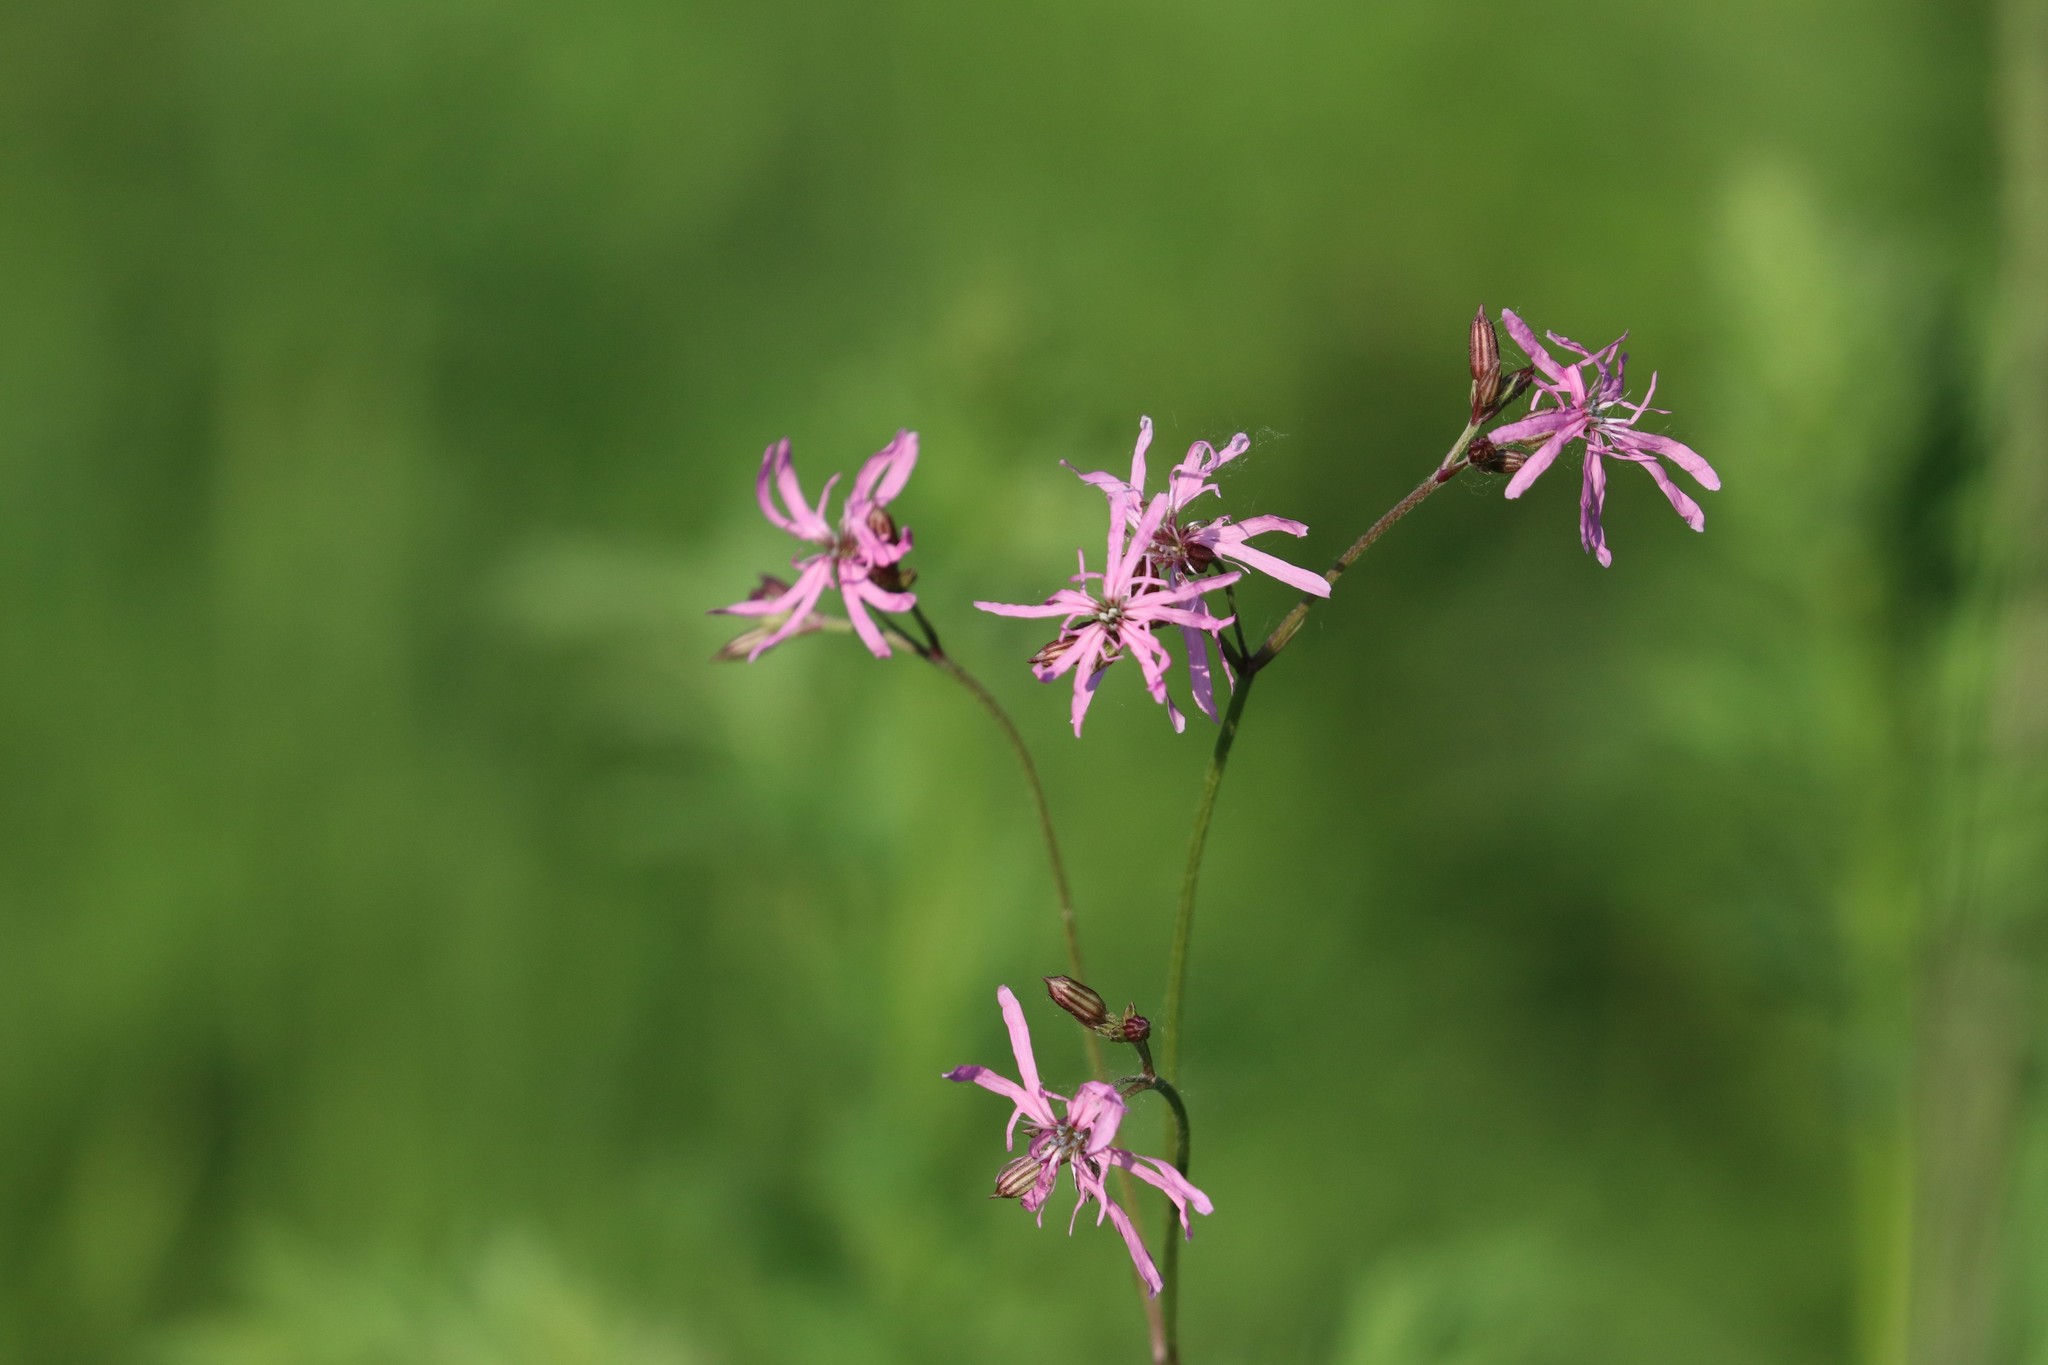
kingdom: Plantae
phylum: Tracheophyta
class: Magnoliopsida
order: Caryophyllales
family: Caryophyllaceae
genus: Silene
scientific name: Silene flos-cuculi
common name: Ragged-robin
